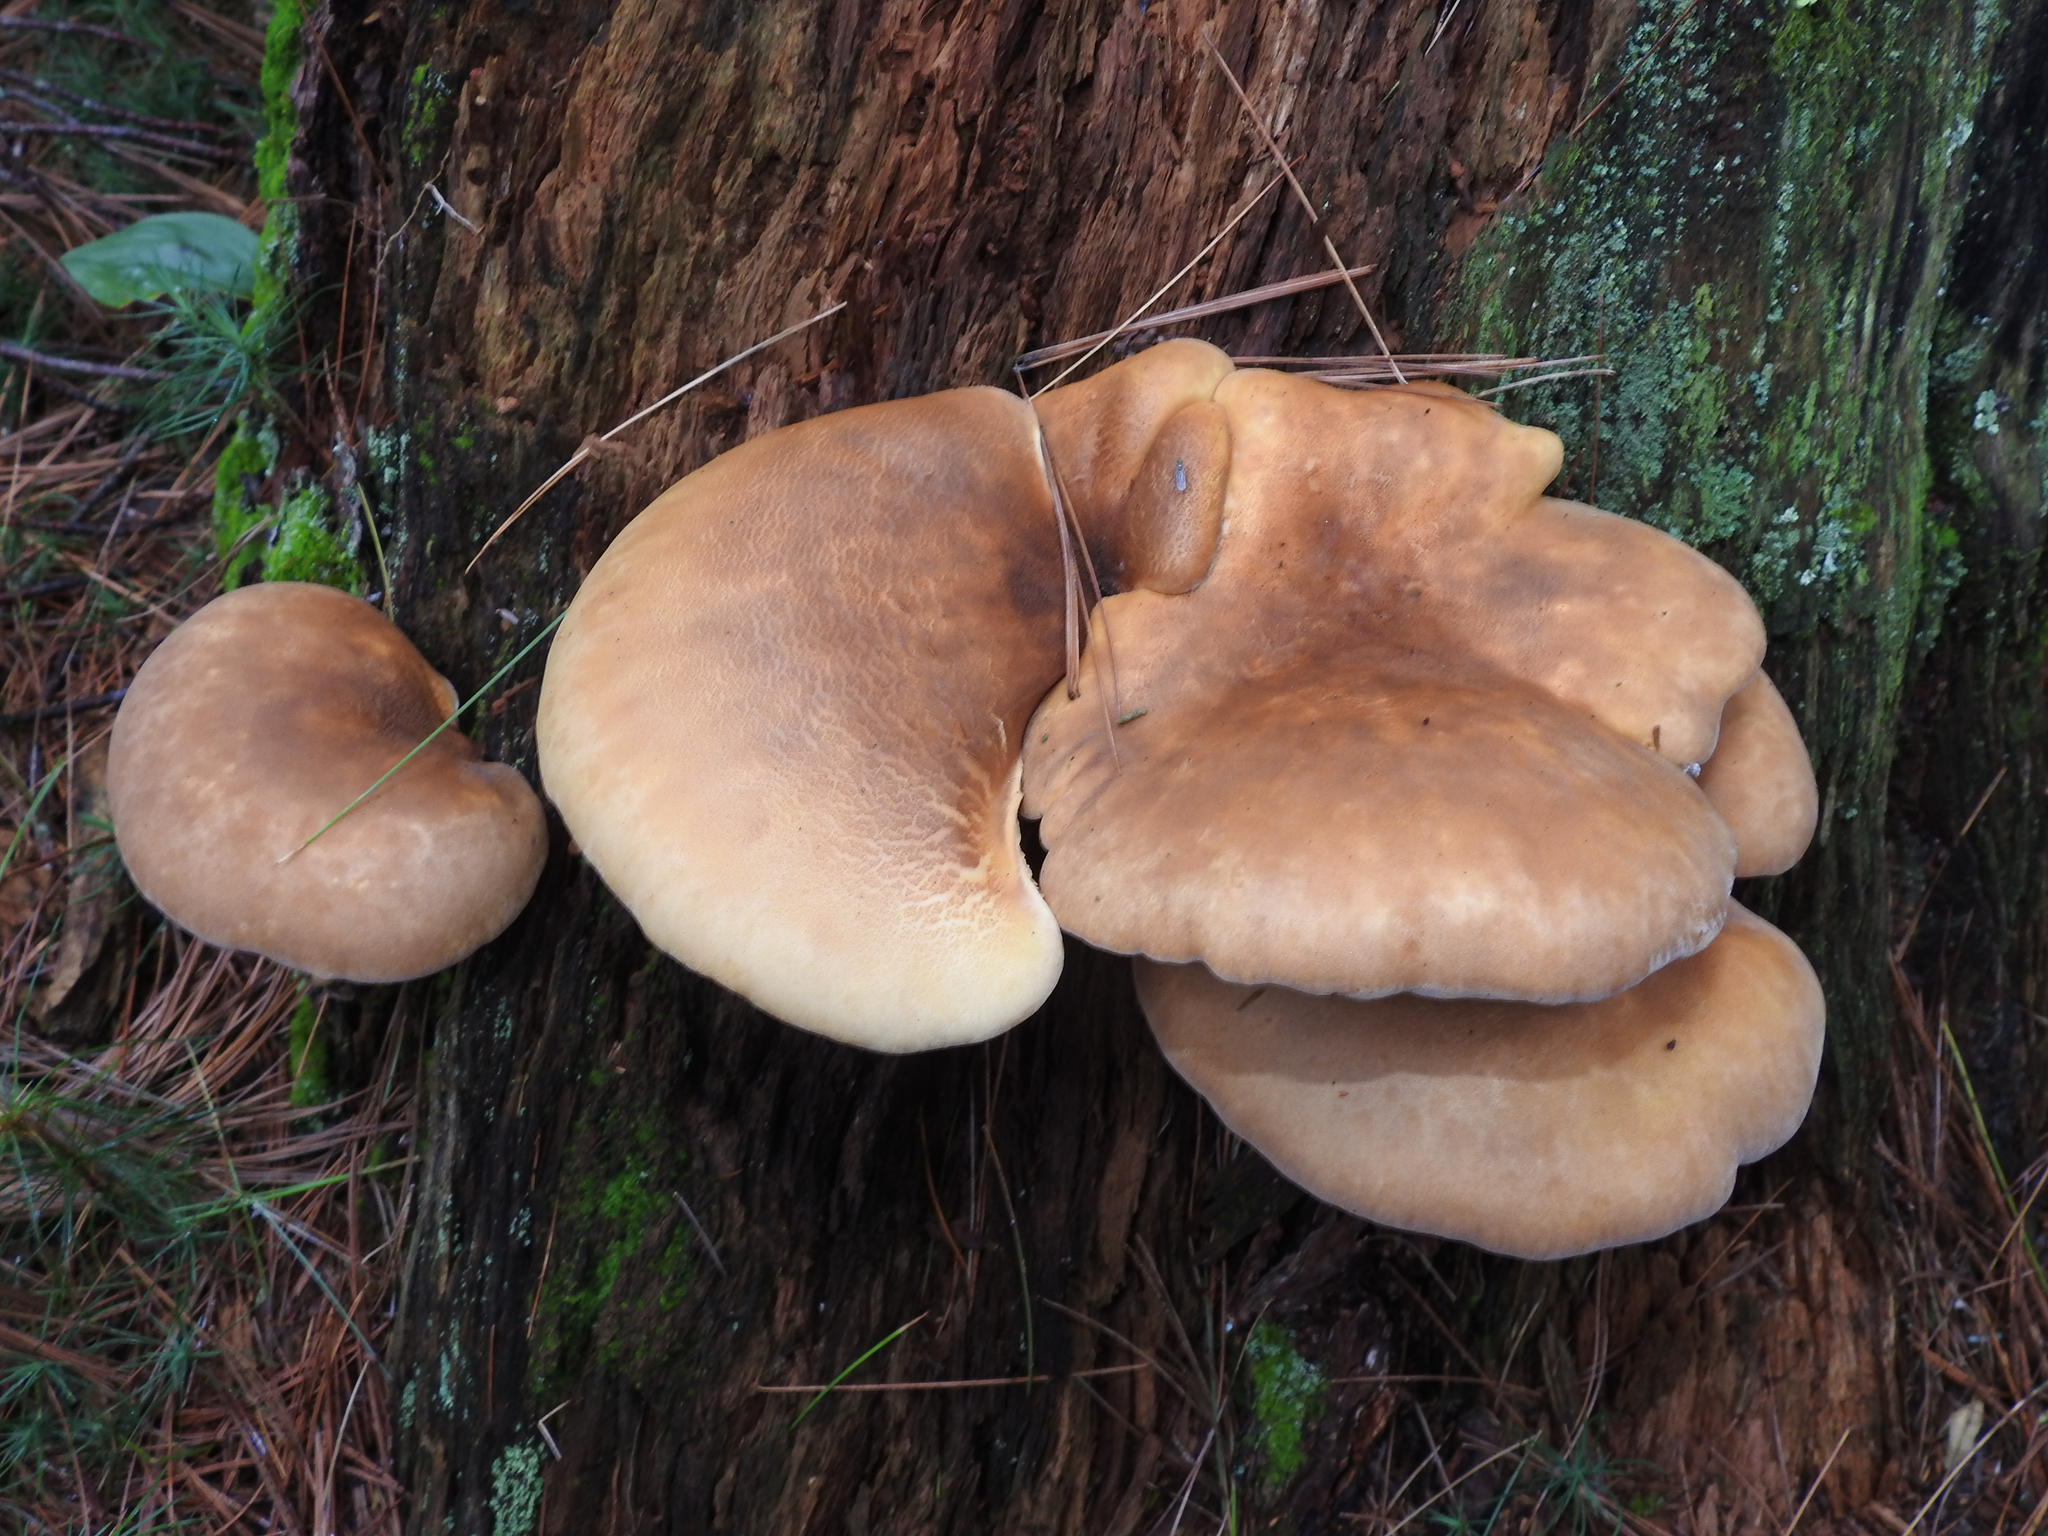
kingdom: Fungi
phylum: Basidiomycota
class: Agaricomycetes
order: Boletales
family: Tapinellaceae
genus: Tapinella
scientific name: Tapinella atrotomentosa
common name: Velvet rollrim
